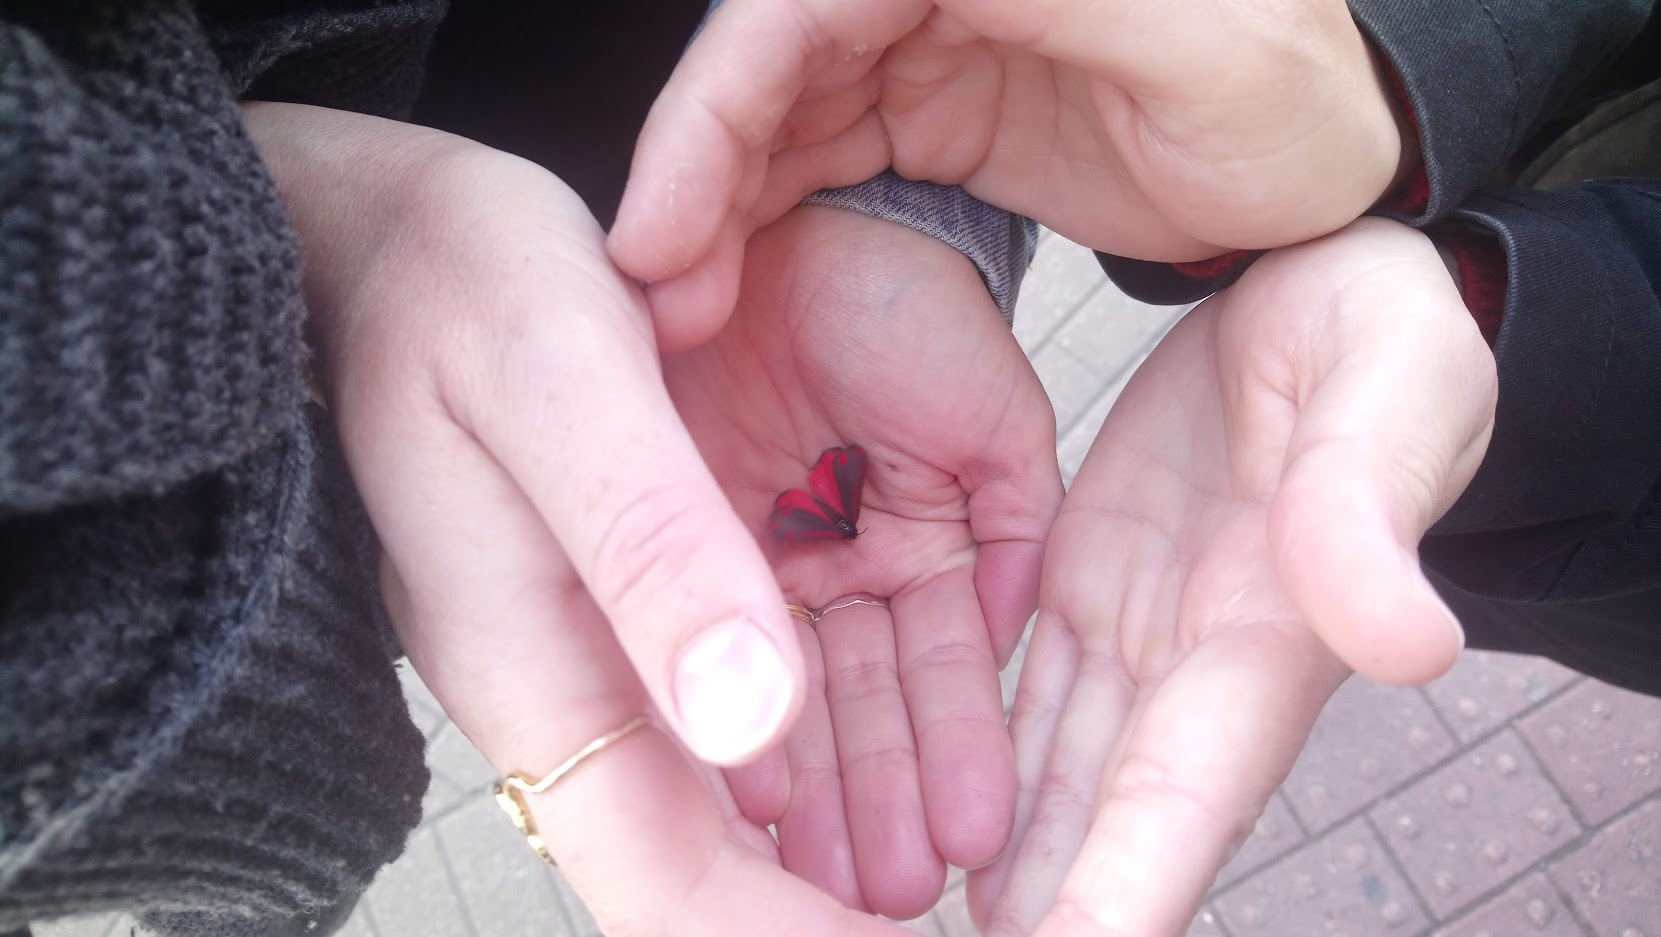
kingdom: Animalia
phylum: Arthropoda
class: Insecta
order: Lepidoptera
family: Erebidae
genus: Tyria
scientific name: Tyria jacobaeae
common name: Cinnabar
